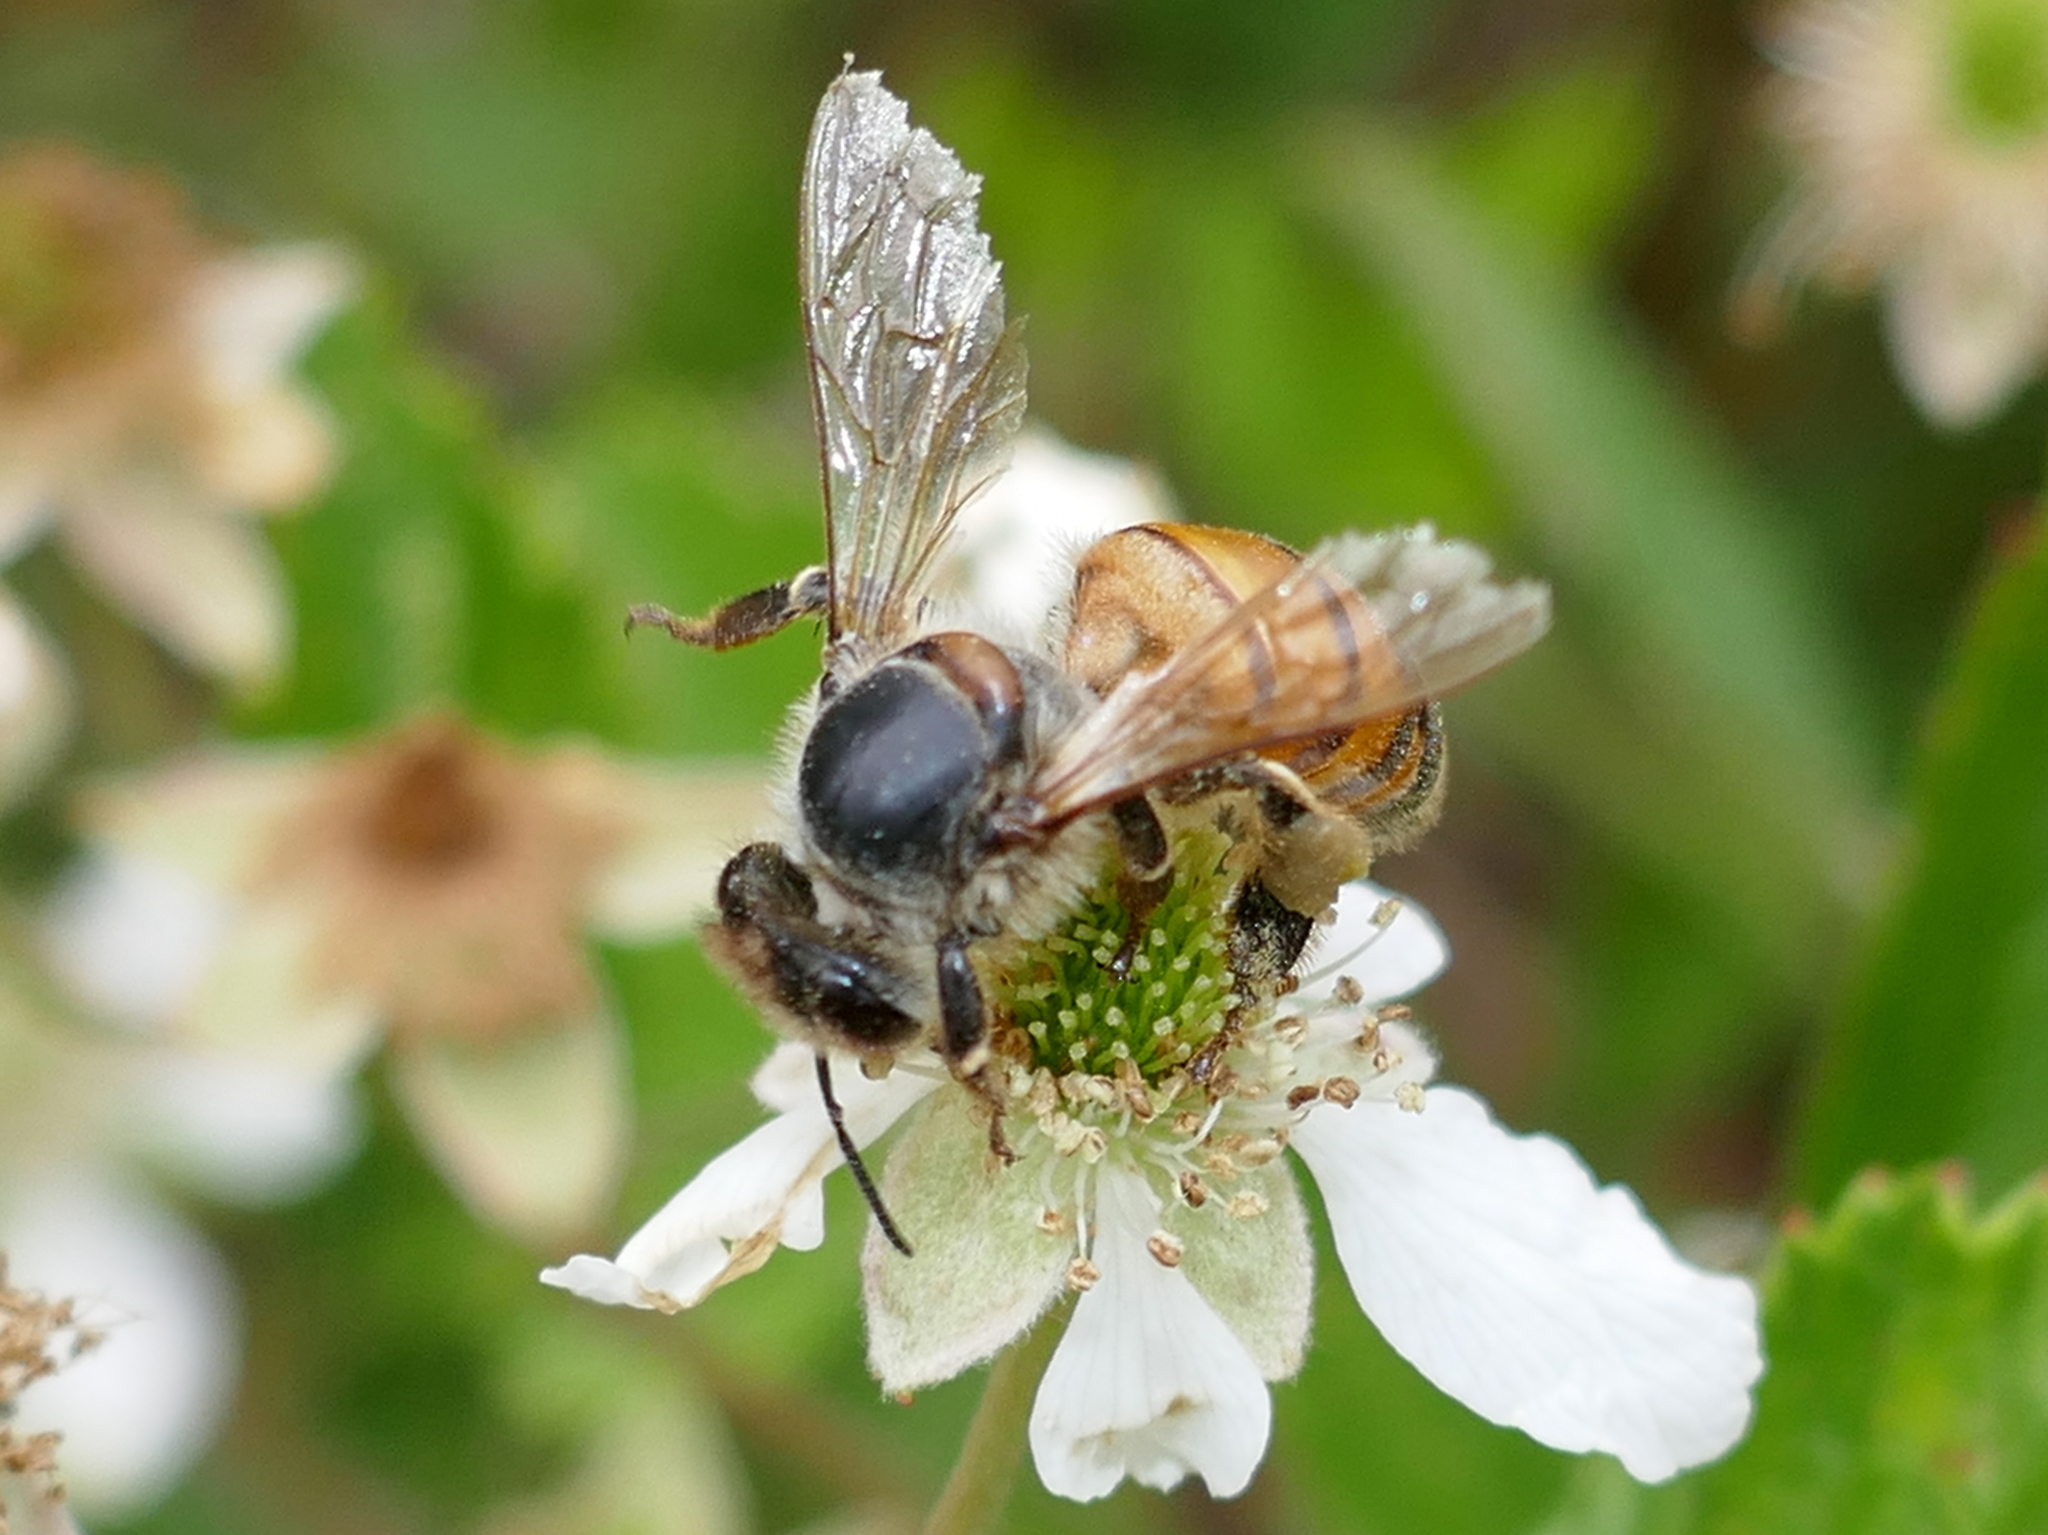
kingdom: Animalia
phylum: Arthropoda
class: Insecta
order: Hymenoptera
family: Apidae
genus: Apis
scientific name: Apis mellifera
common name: Honey bee
